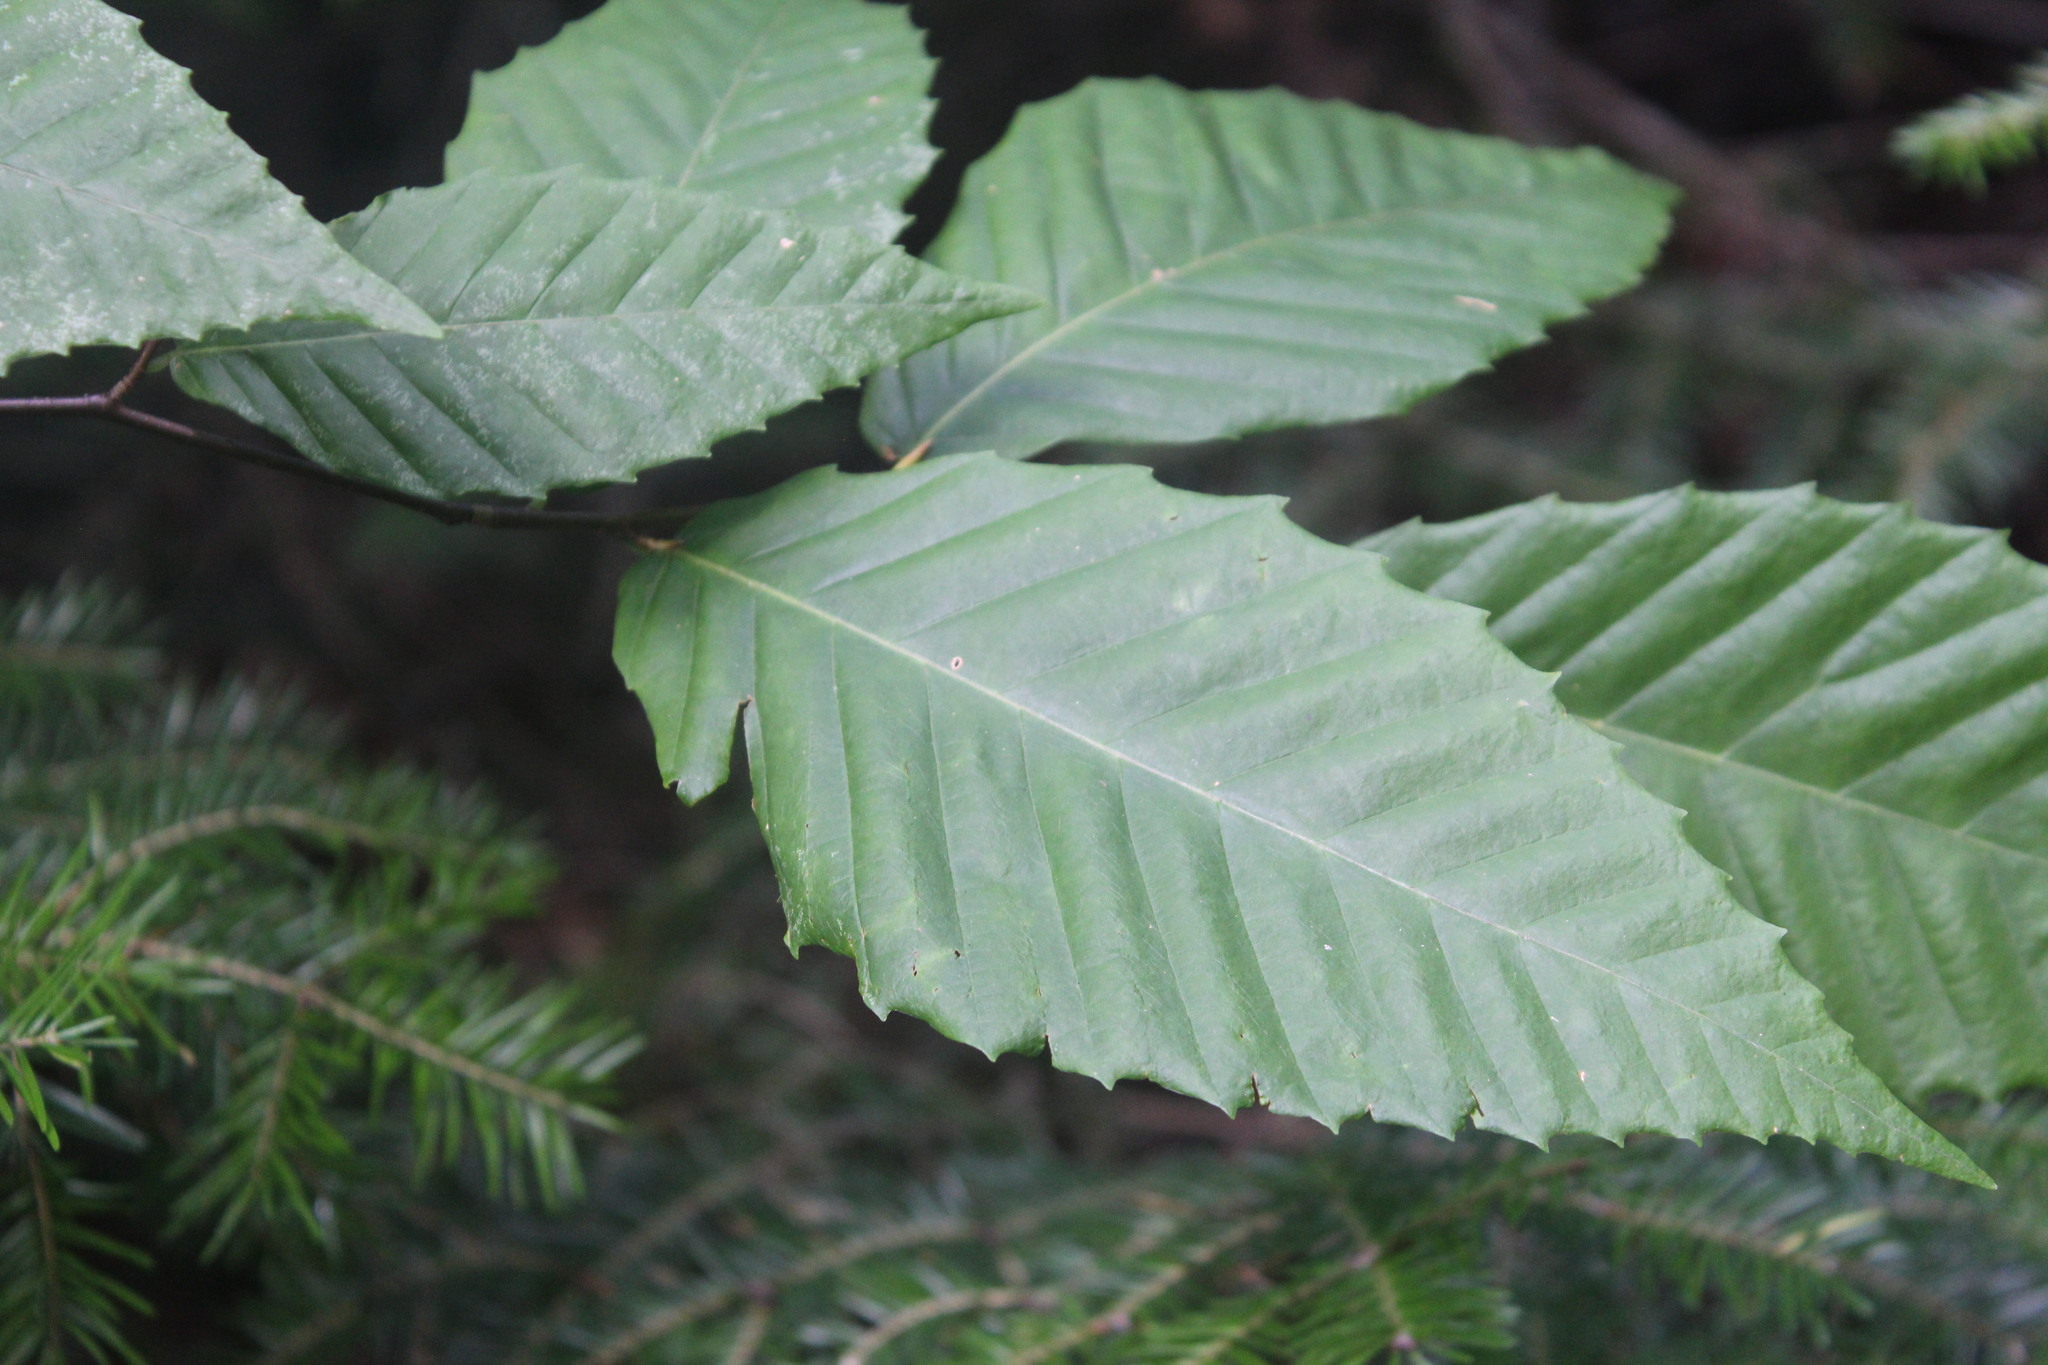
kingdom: Plantae
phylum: Tracheophyta
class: Magnoliopsida
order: Fagales
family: Fagaceae
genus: Fagus
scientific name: Fagus grandifolia
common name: American beech
